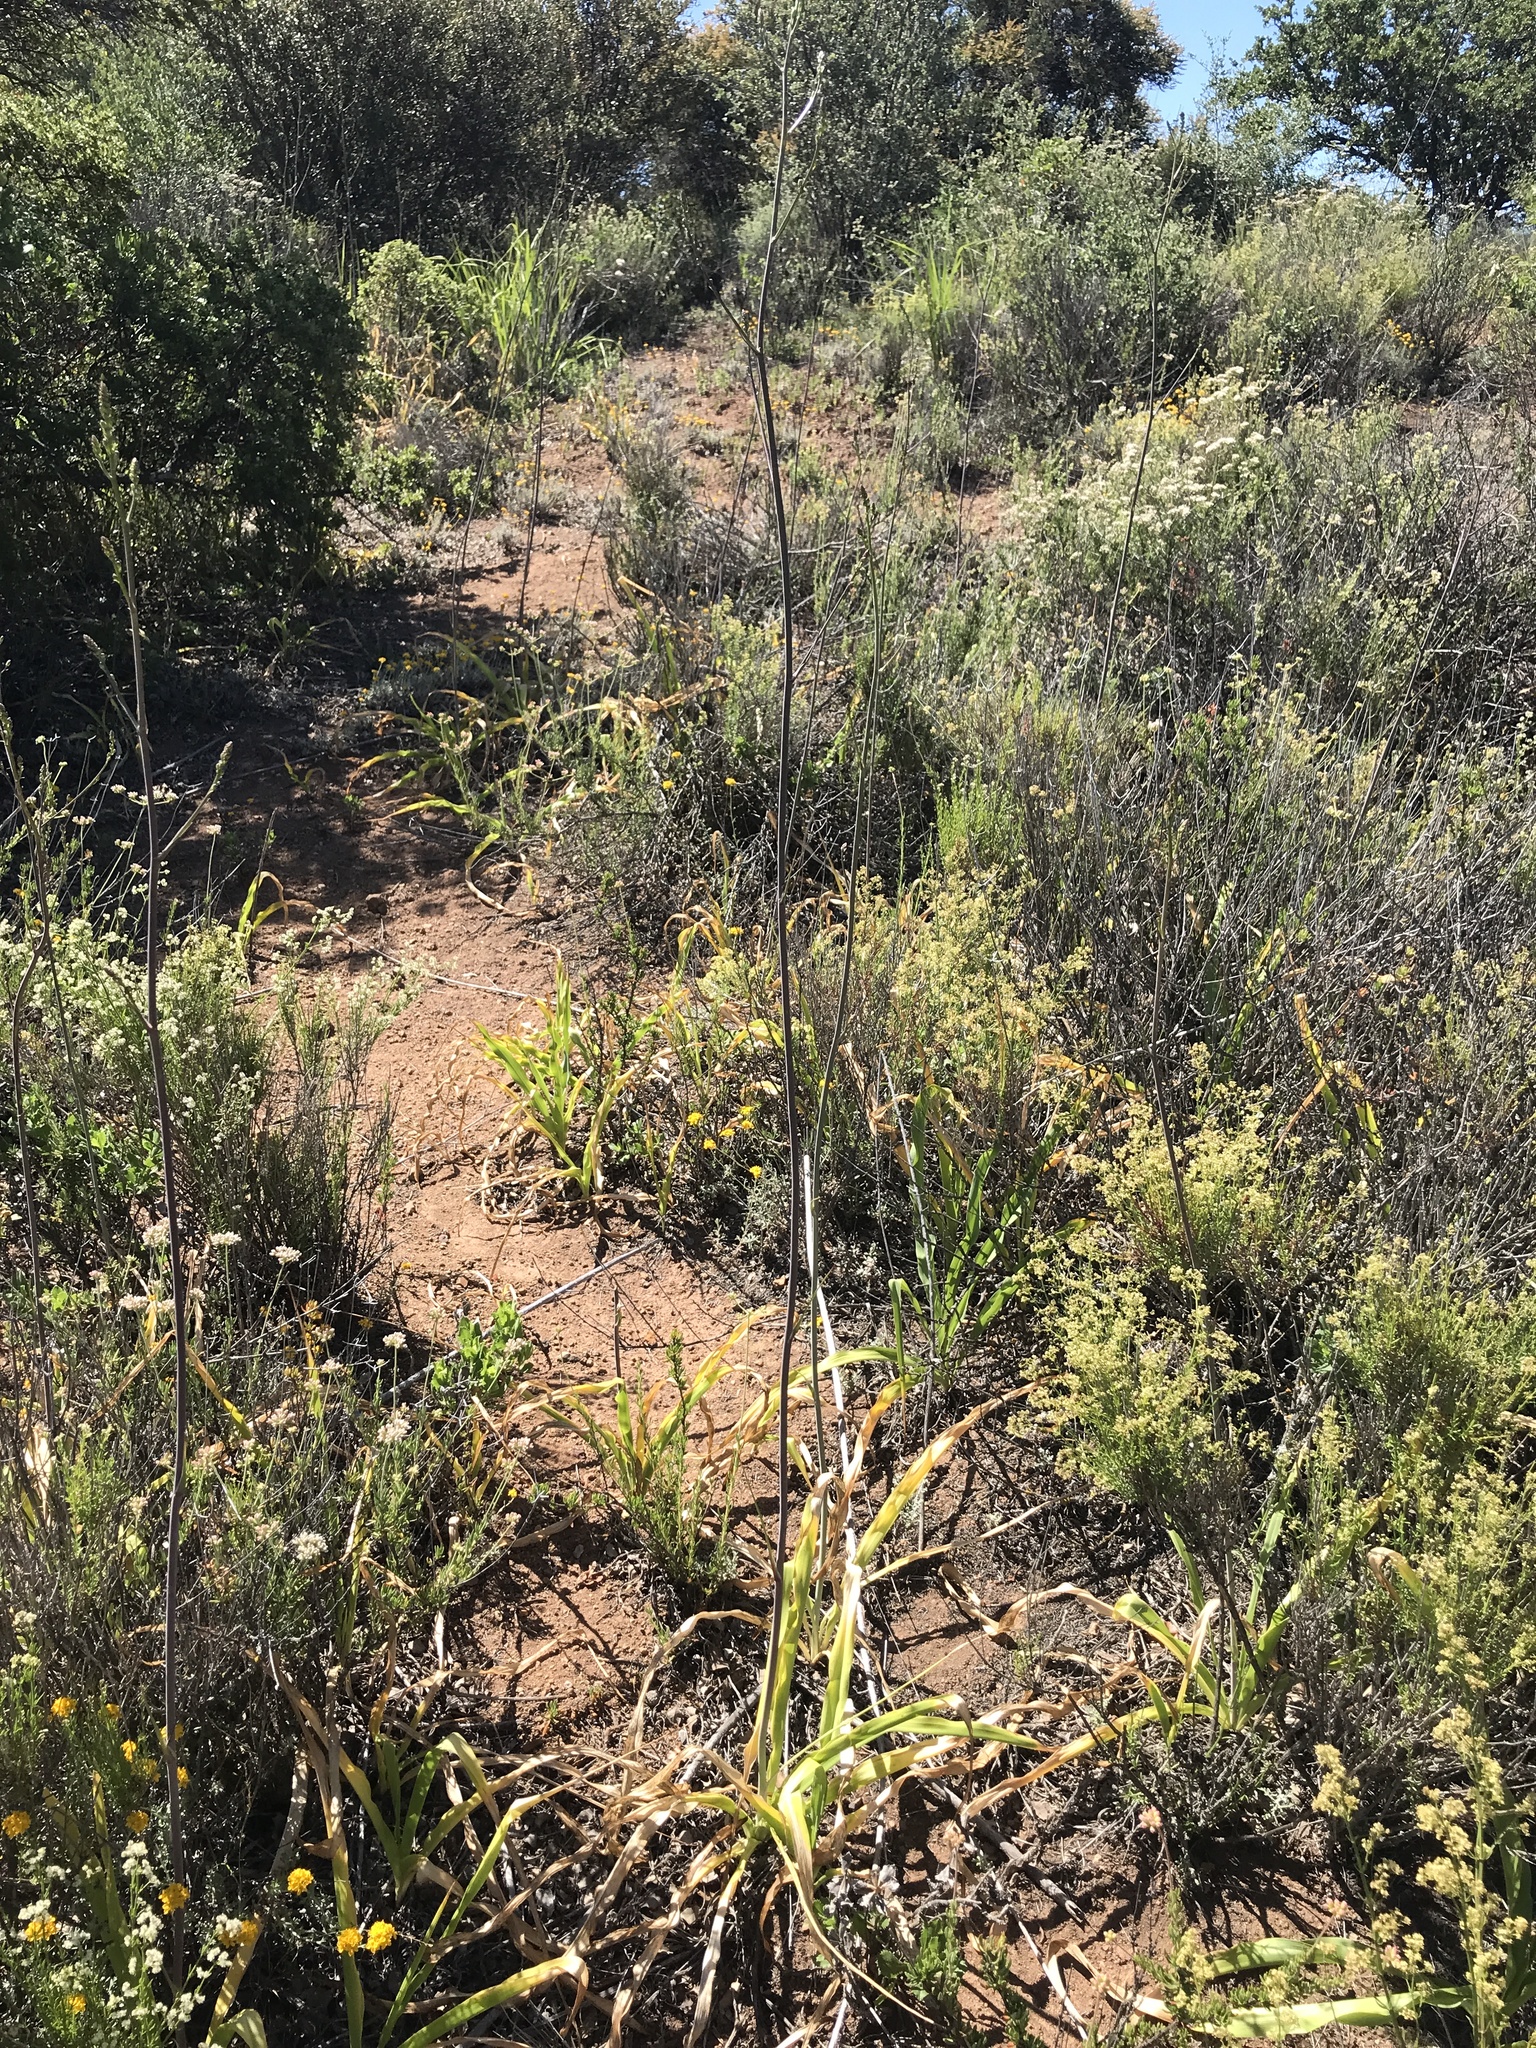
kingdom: Plantae
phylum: Tracheophyta
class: Liliopsida
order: Asparagales
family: Asparagaceae
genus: Chlorogalum
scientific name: Chlorogalum pomeridianum
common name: Amole
